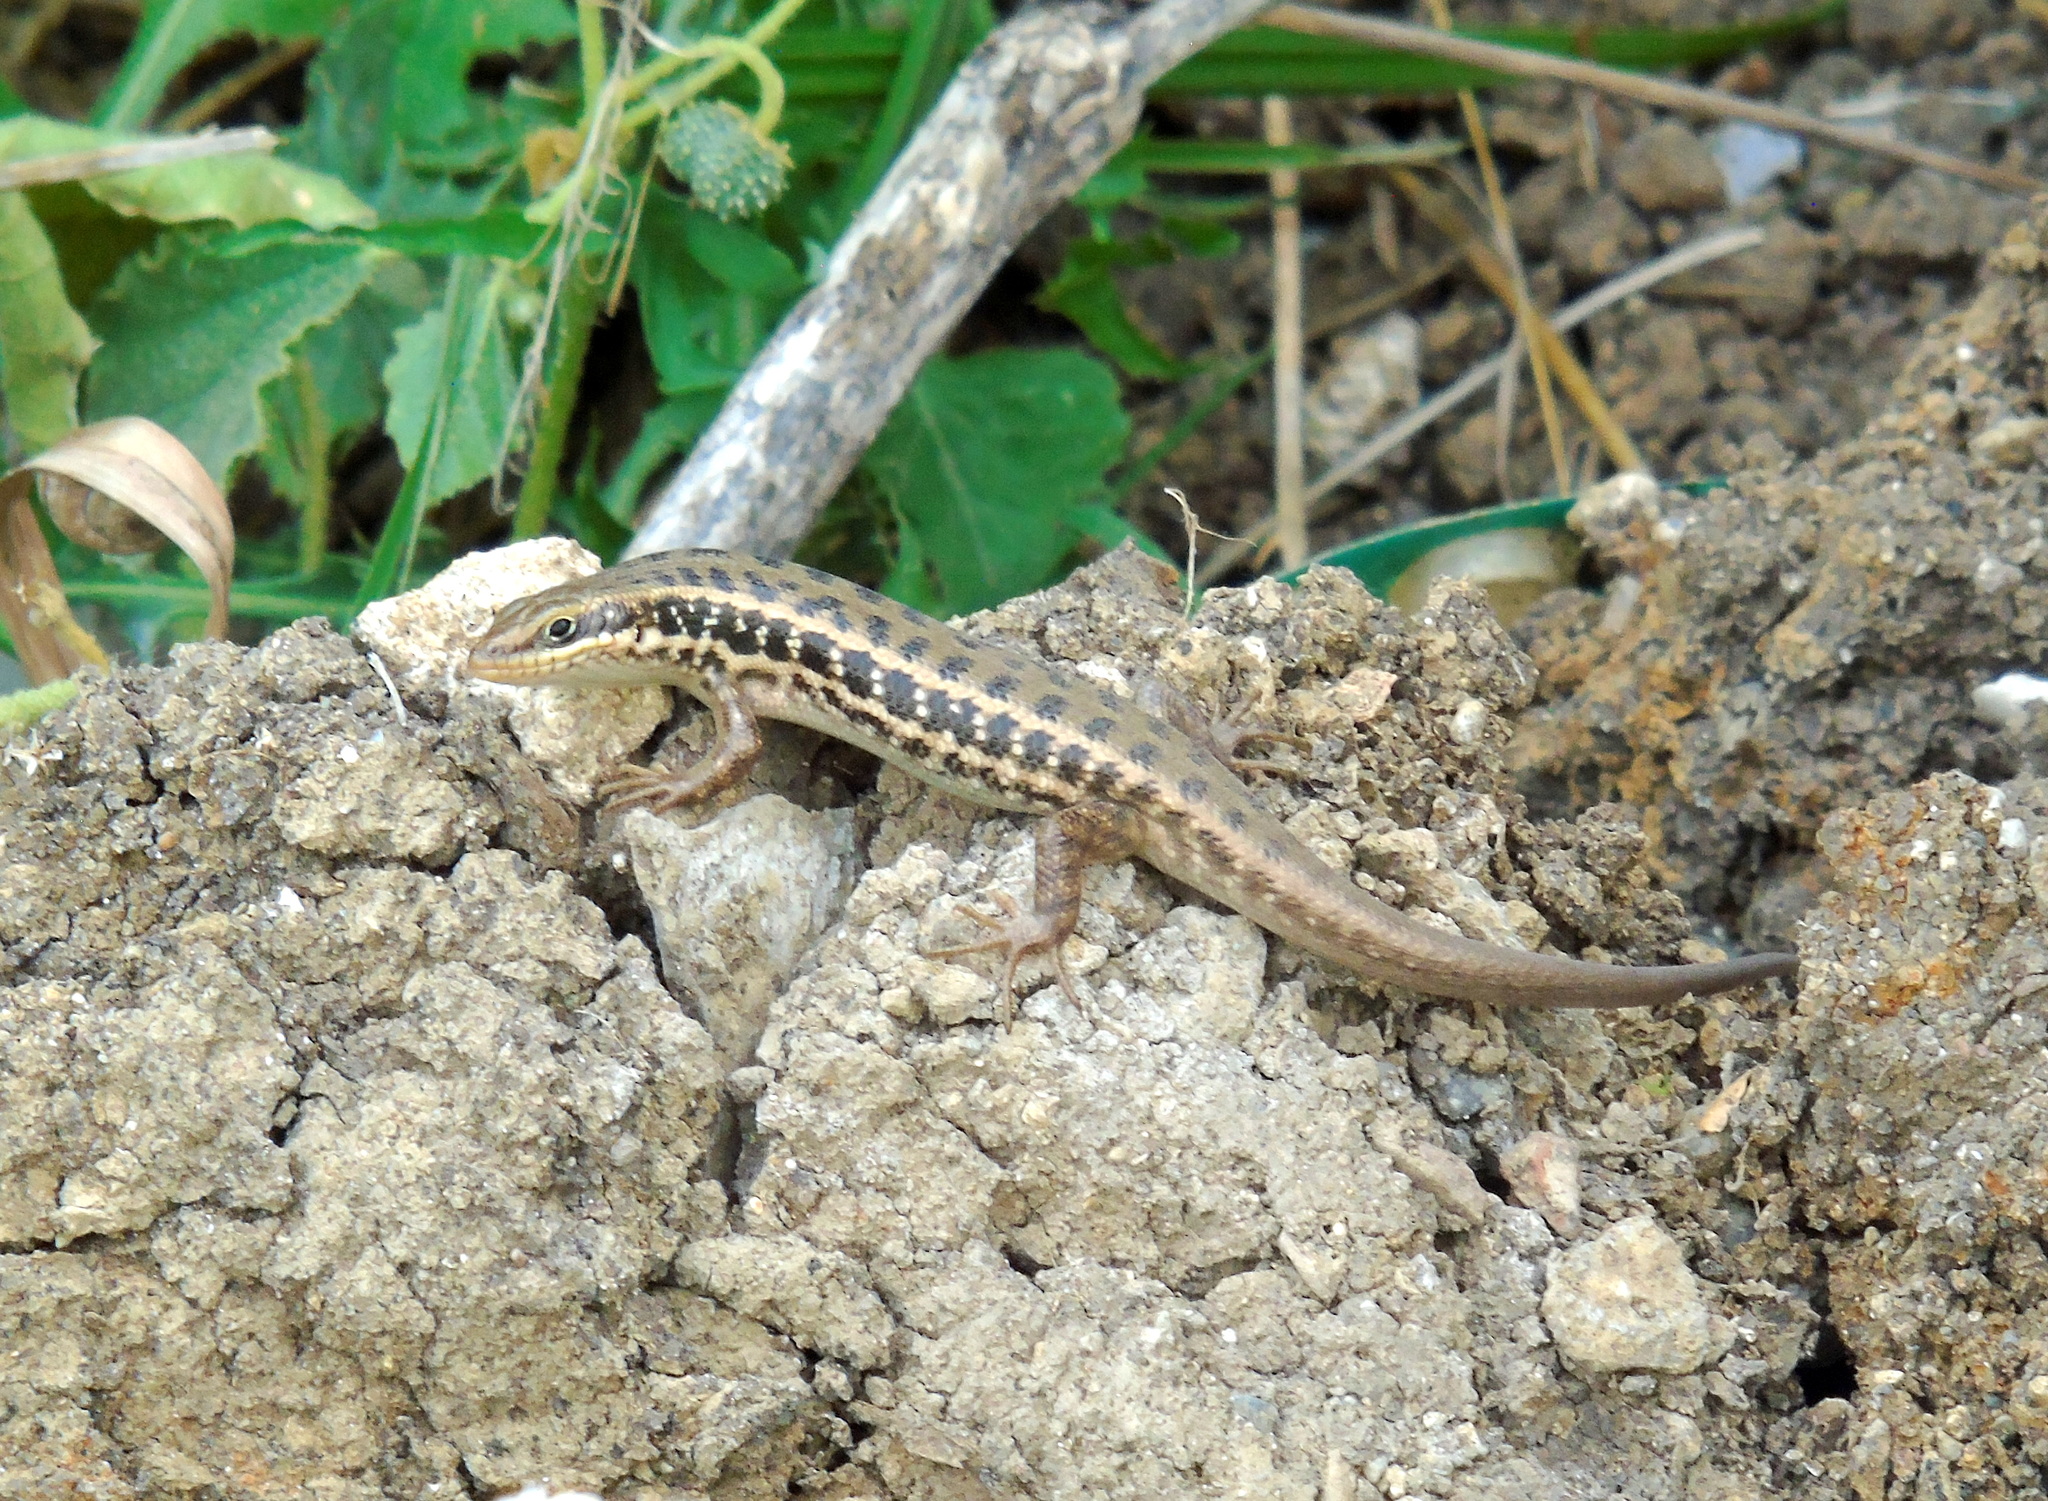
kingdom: Animalia
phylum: Chordata
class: Squamata
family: Scincidae
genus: Heremites
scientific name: Heremites auratus
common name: Golden grass mabuya
